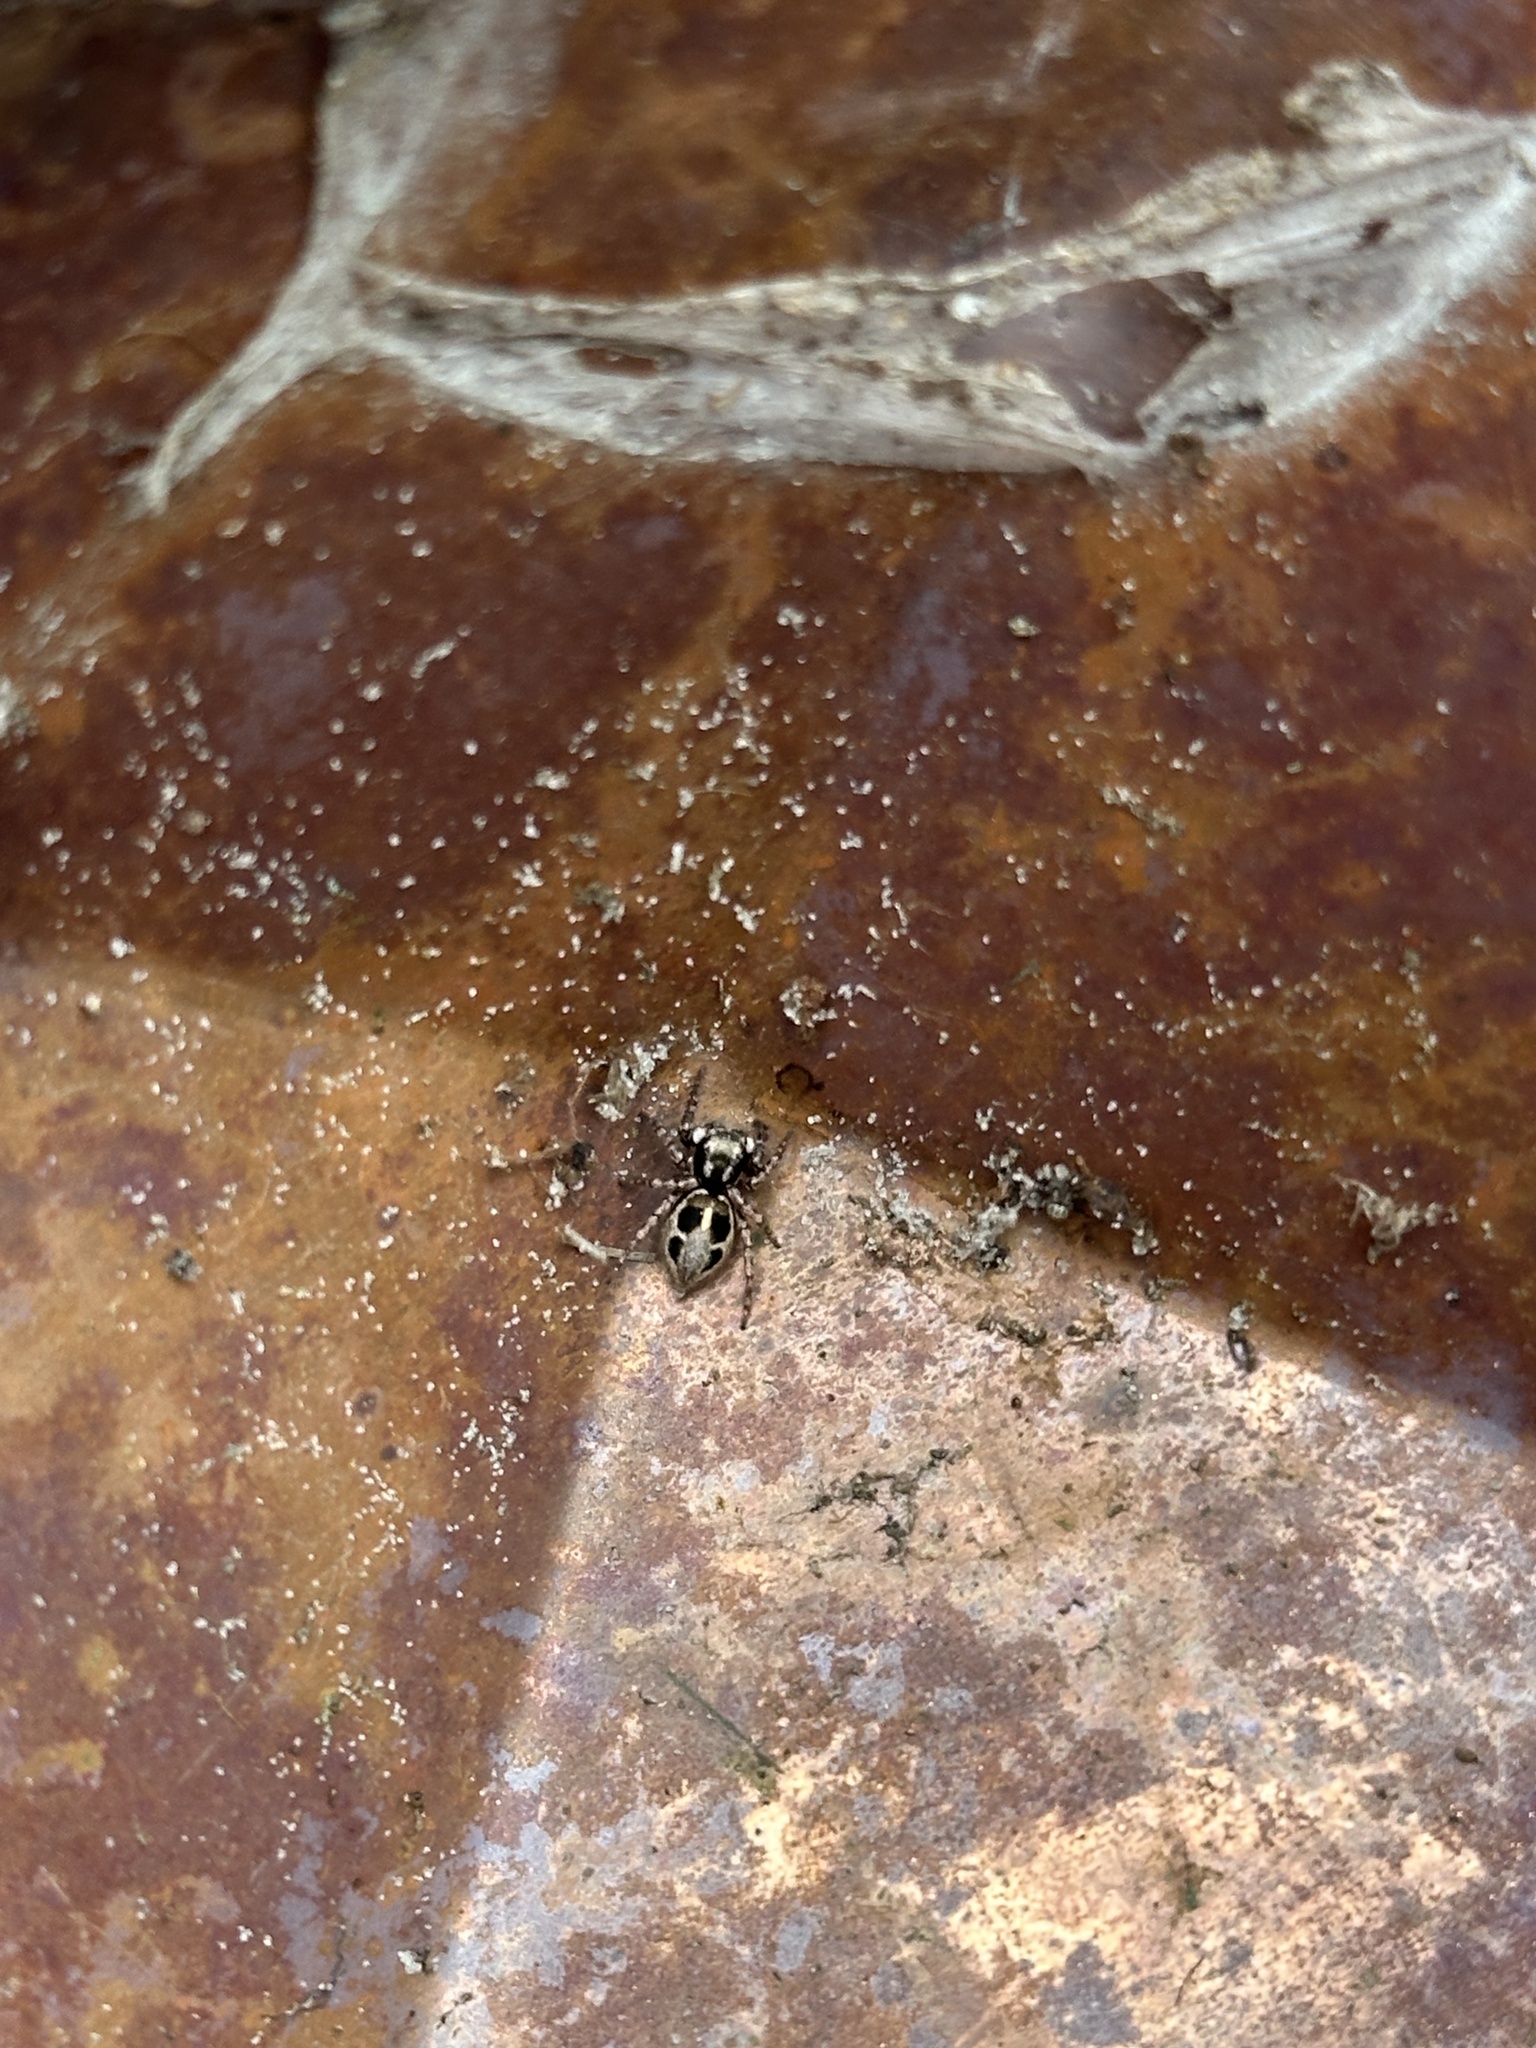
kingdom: Animalia
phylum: Arthropoda
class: Arachnida
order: Araneae
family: Salticidae
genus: Anasaitis
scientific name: Anasaitis canosa
